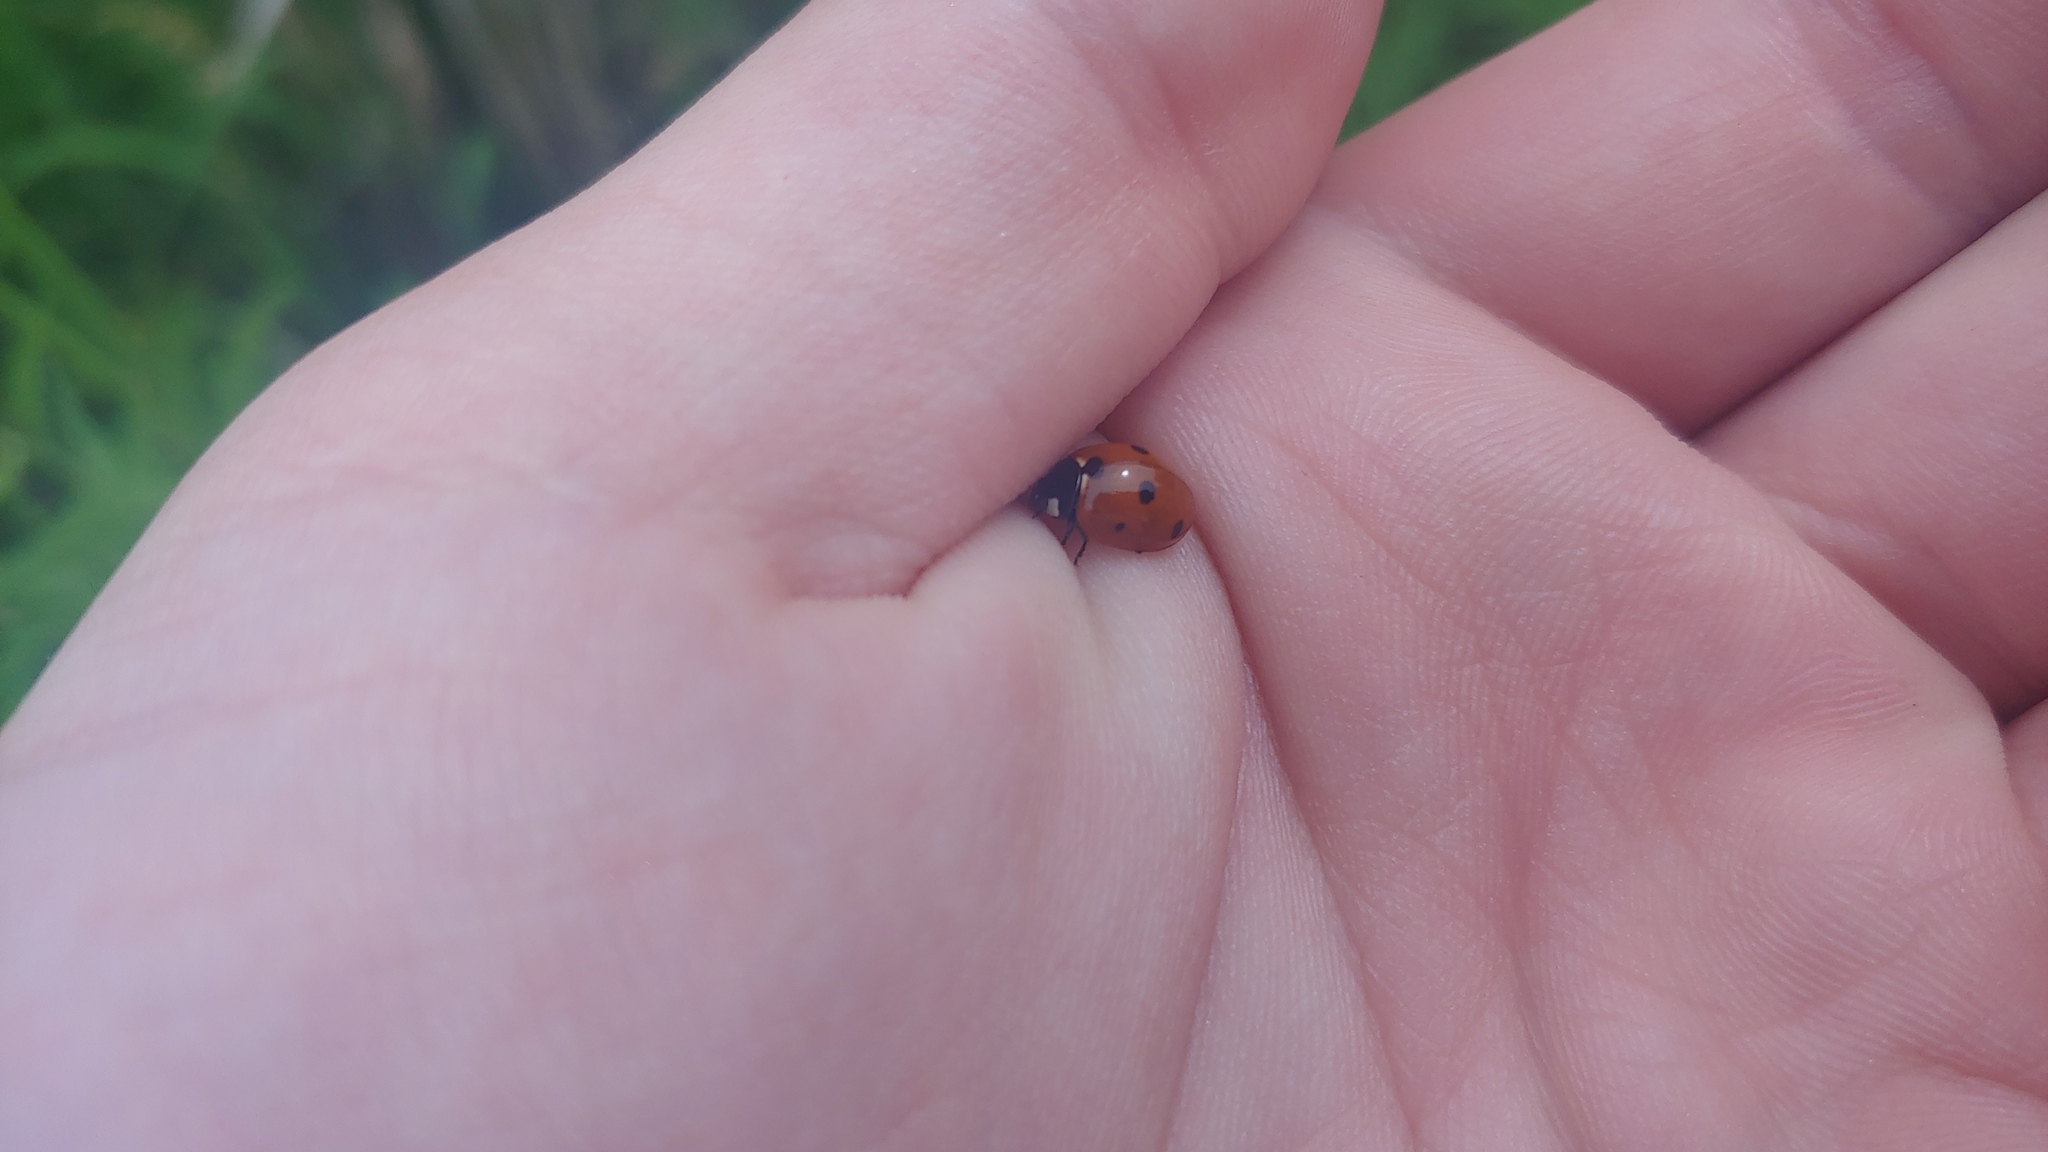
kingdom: Animalia
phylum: Arthropoda
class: Insecta
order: Coleoptera
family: Coccinellidae
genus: Coccinella
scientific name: Coccinella septempunctata
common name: Sevenspotted lady beetle
